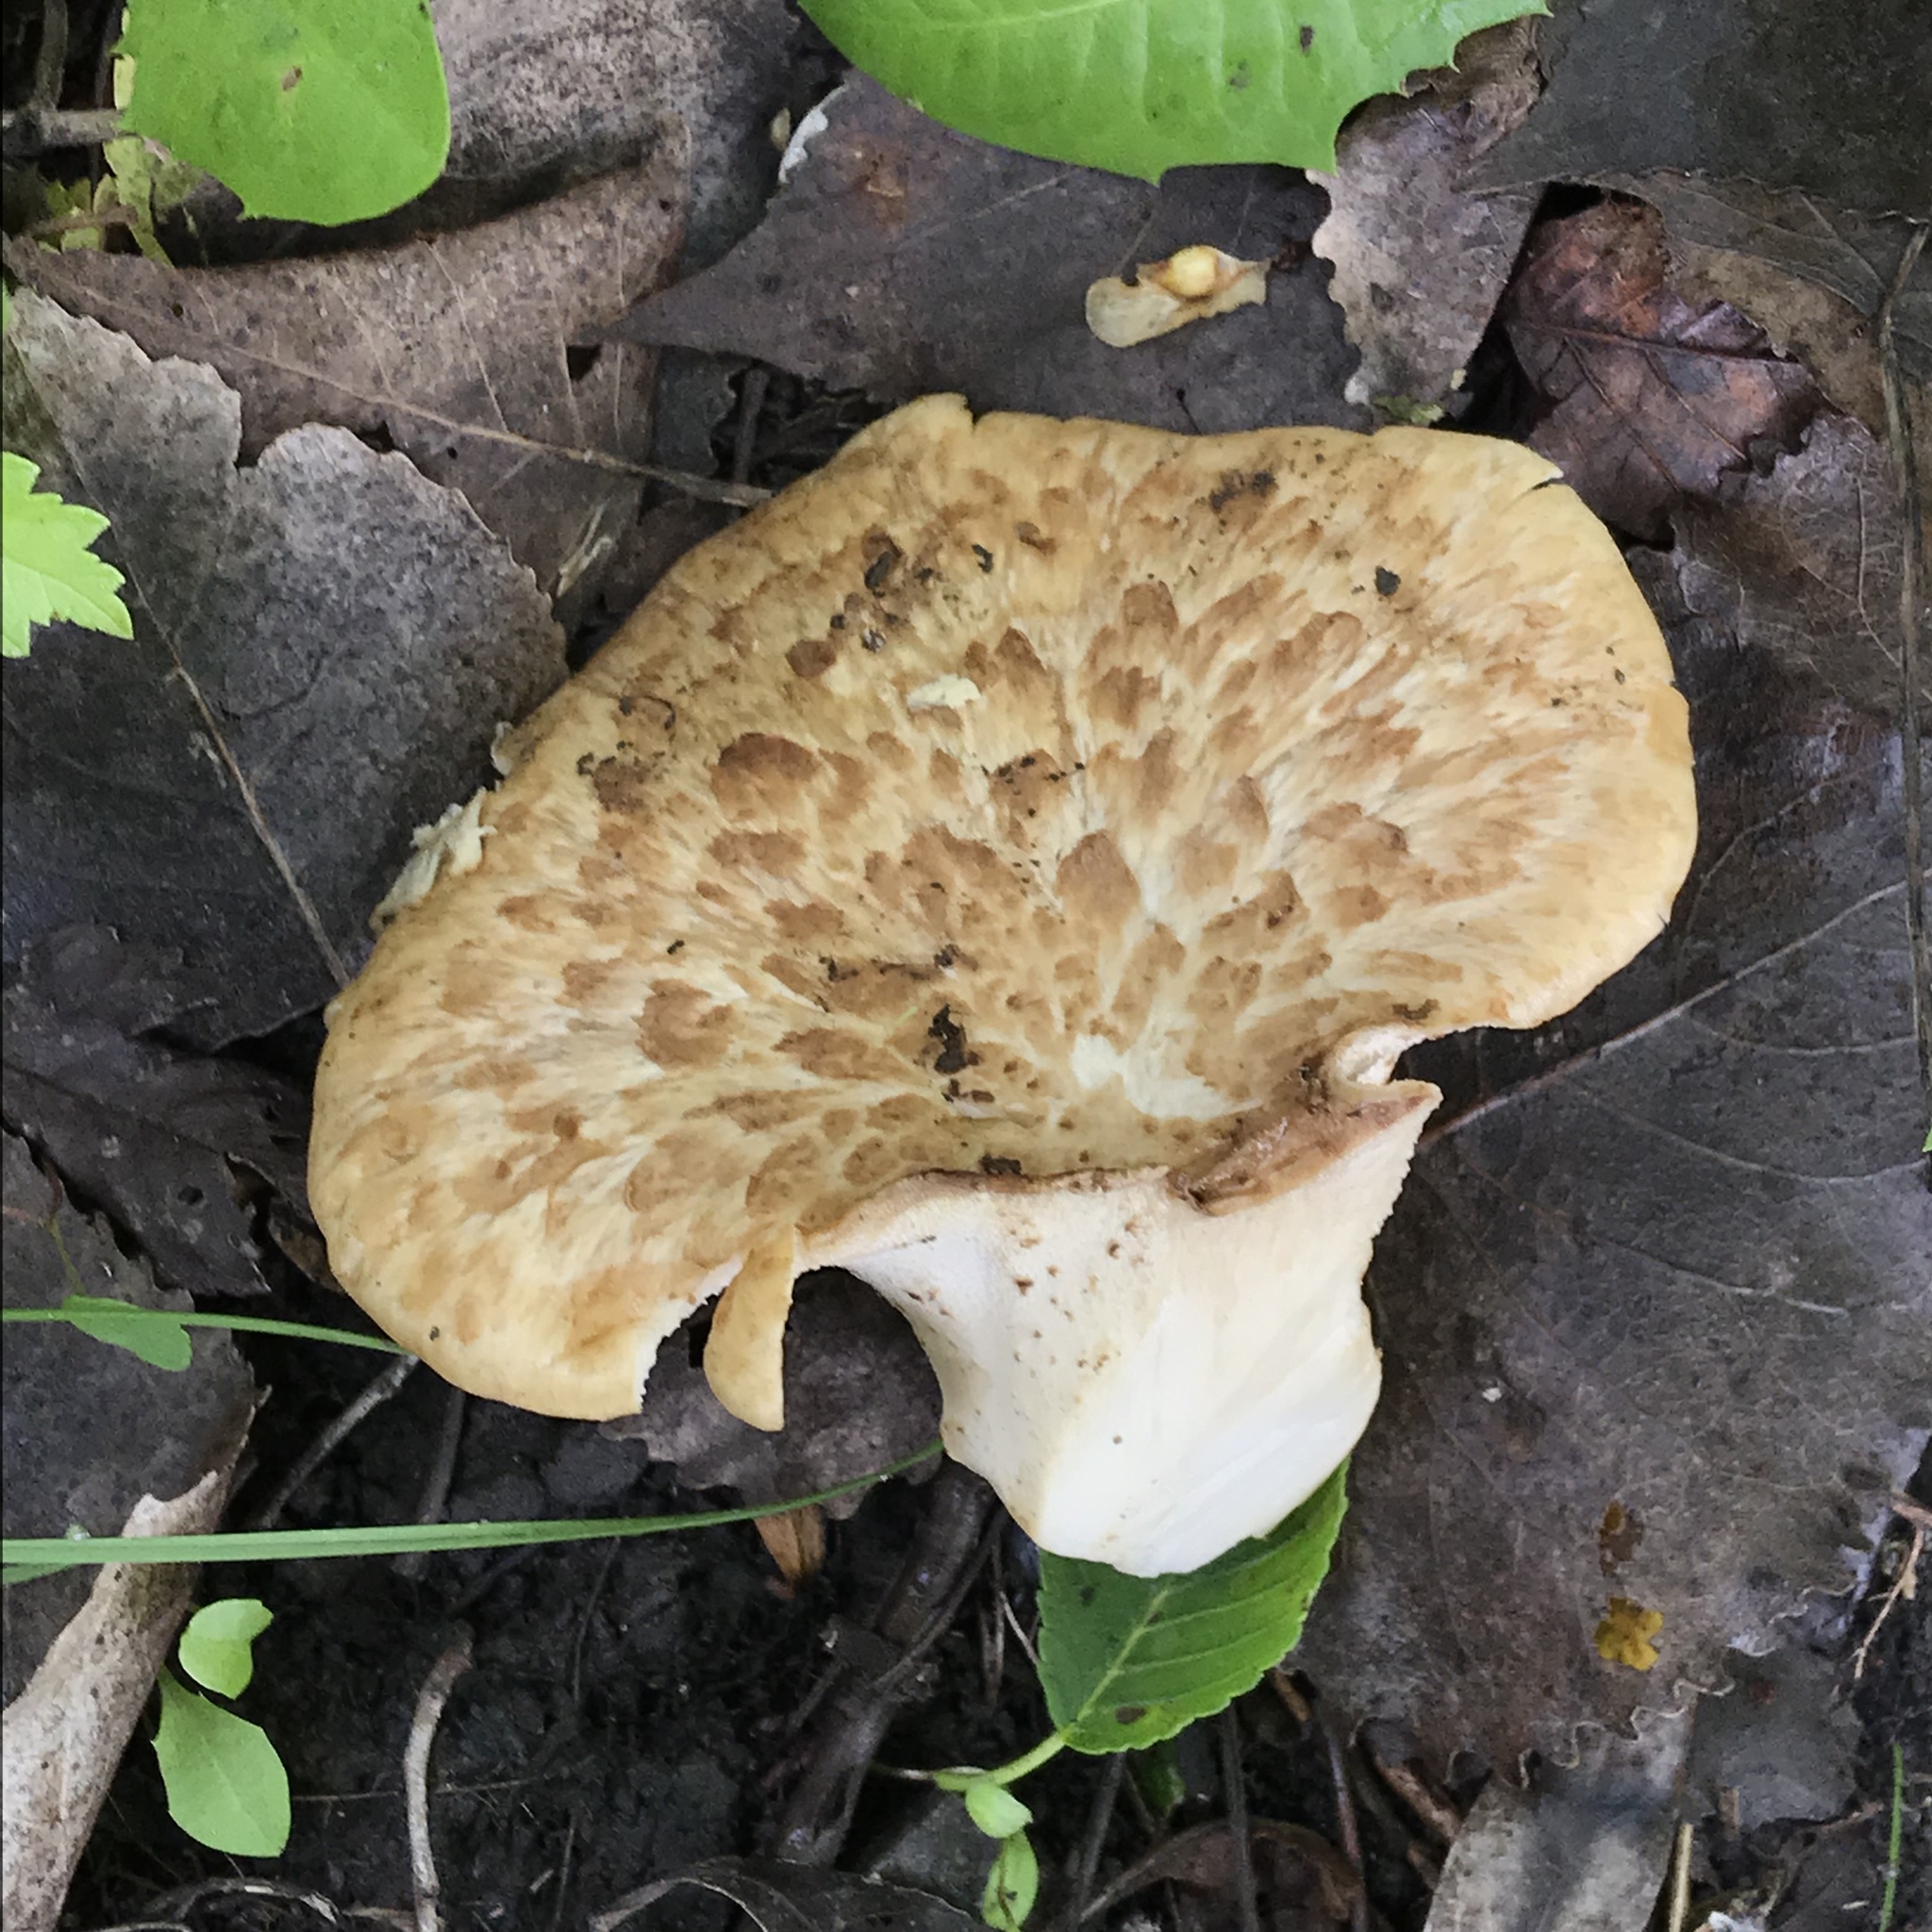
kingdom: Fungi
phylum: Basidiomycota
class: Agaricomycetes
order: Polyporales
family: Polyporaceae
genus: Cerioporus
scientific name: Cerioporus squamosus
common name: Dryad's saddle
